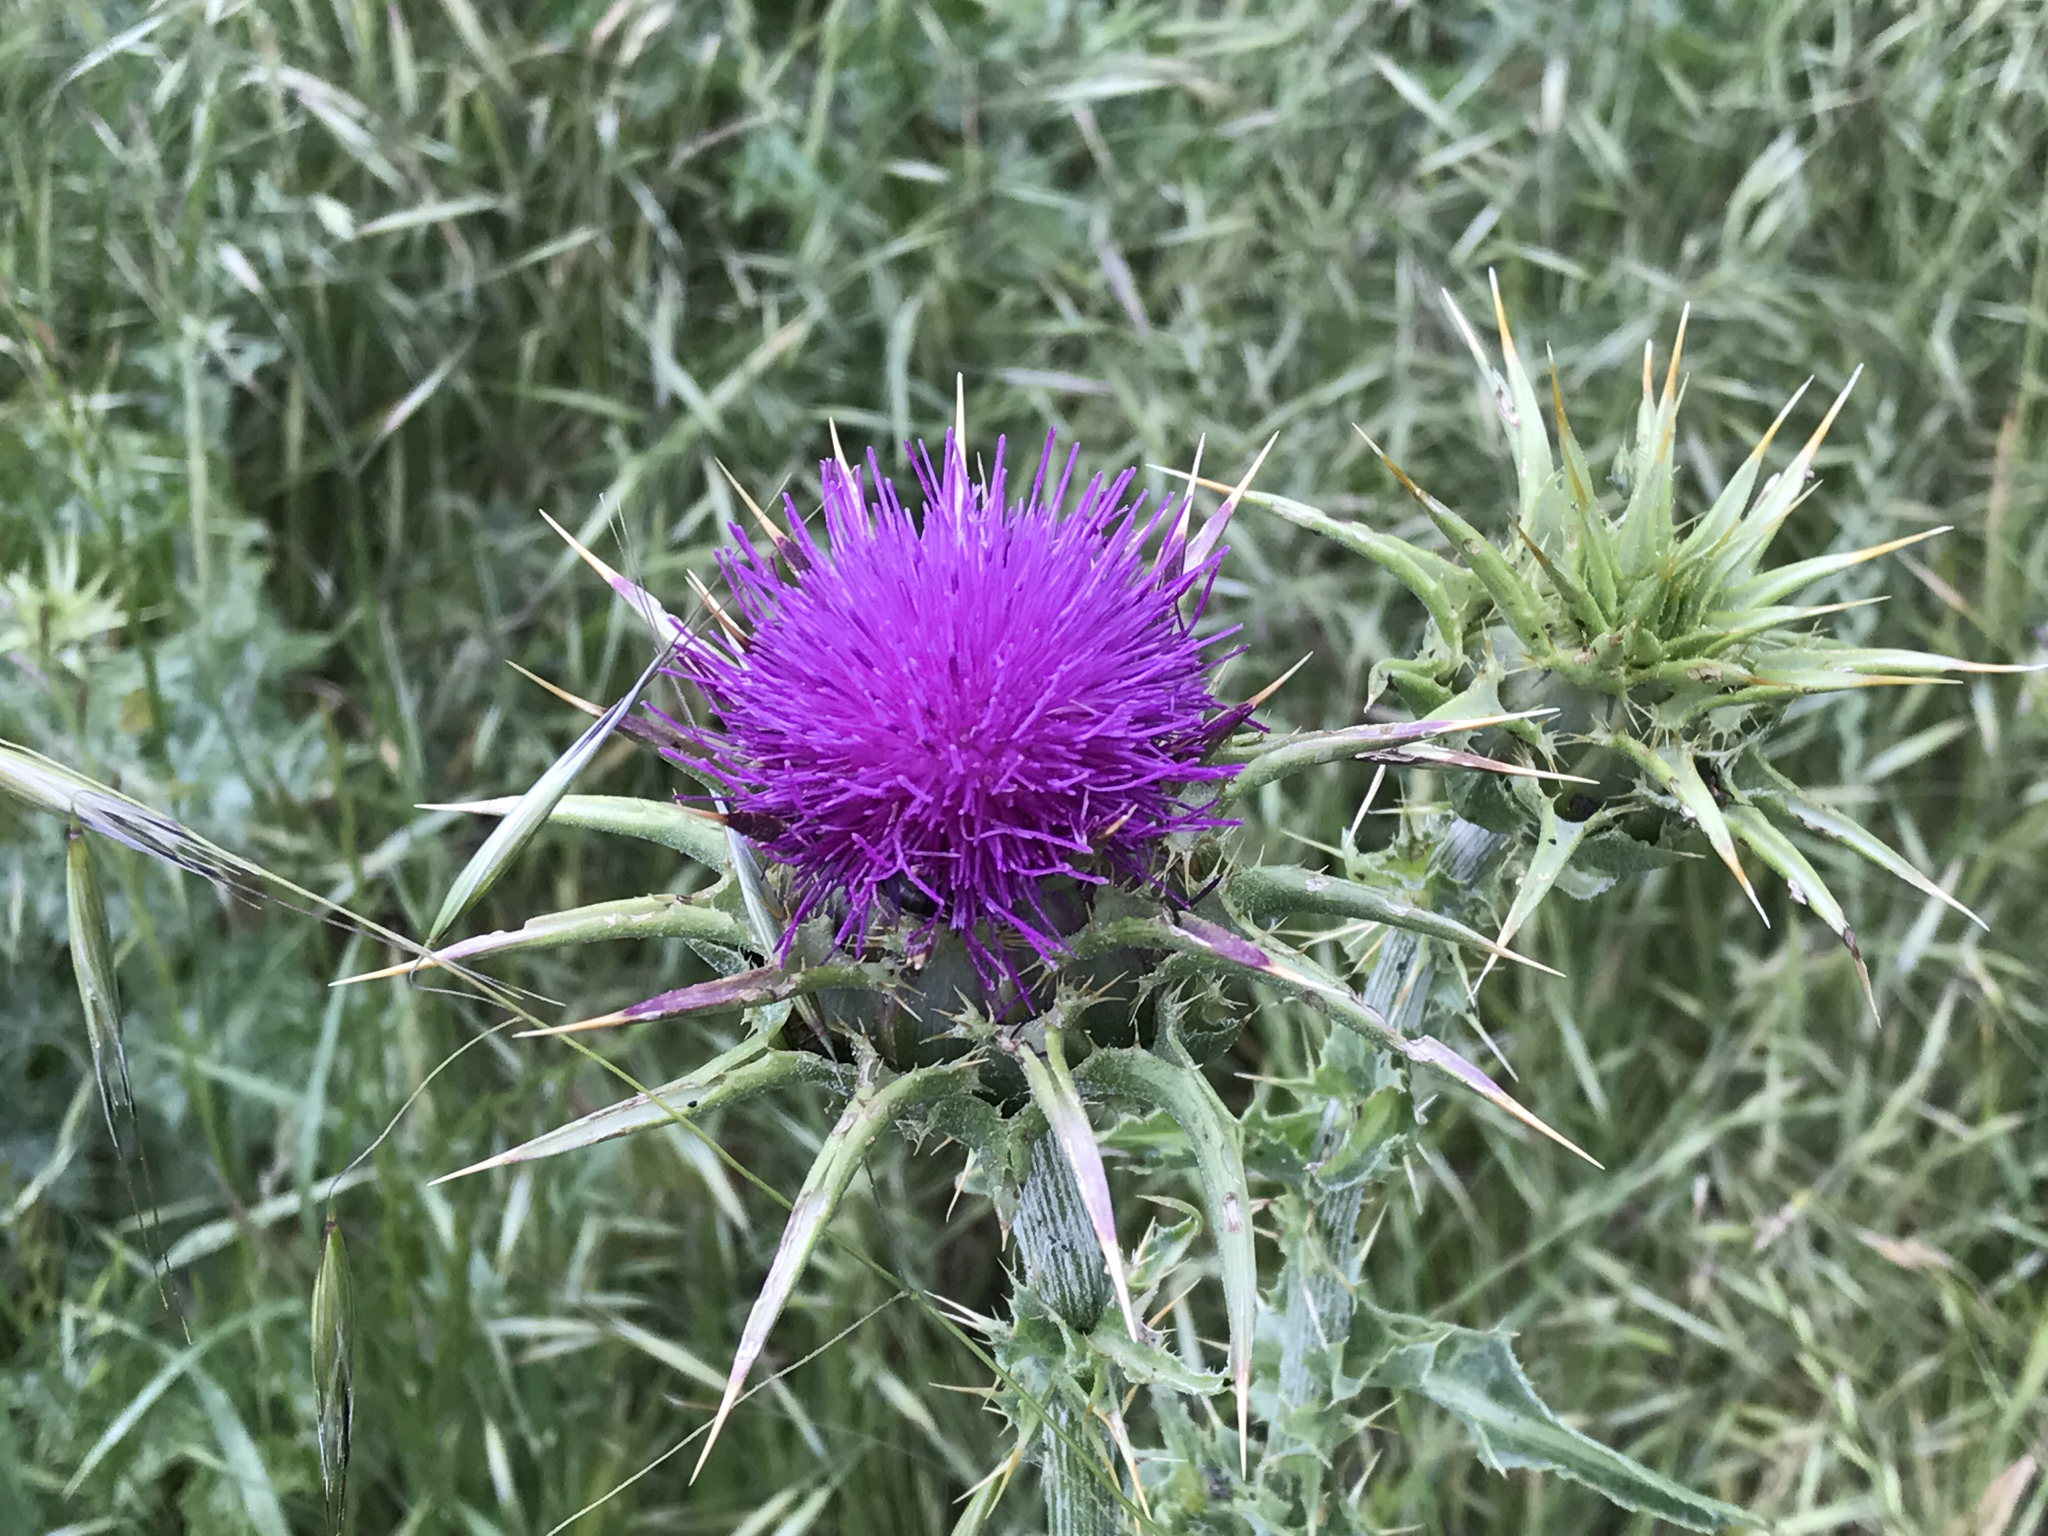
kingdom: Plantae
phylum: Tracheophyta
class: Magnoliopsida
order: Asterales
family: Asteraceae
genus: Silybum
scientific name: Silybum marianum
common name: Milk thistle
